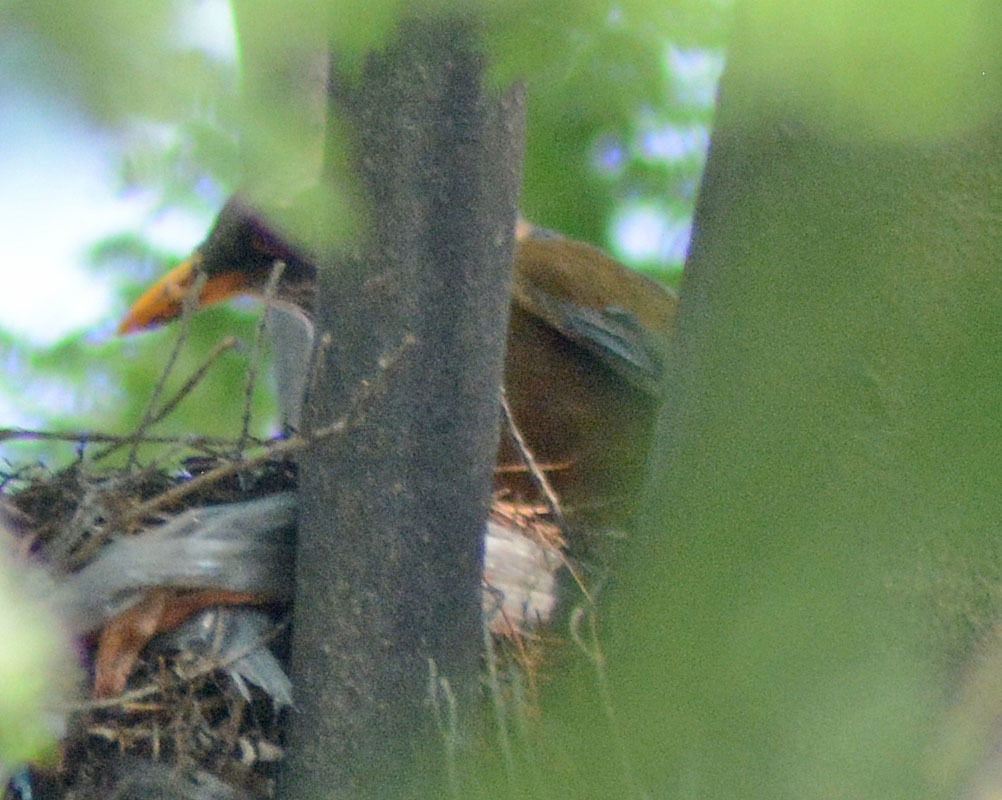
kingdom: Animalia
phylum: Chordata
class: Aves
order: Passeriformes
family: Turdidae
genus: Turdus
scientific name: Turdus rufopalliatus
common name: Rufous-backed robin
